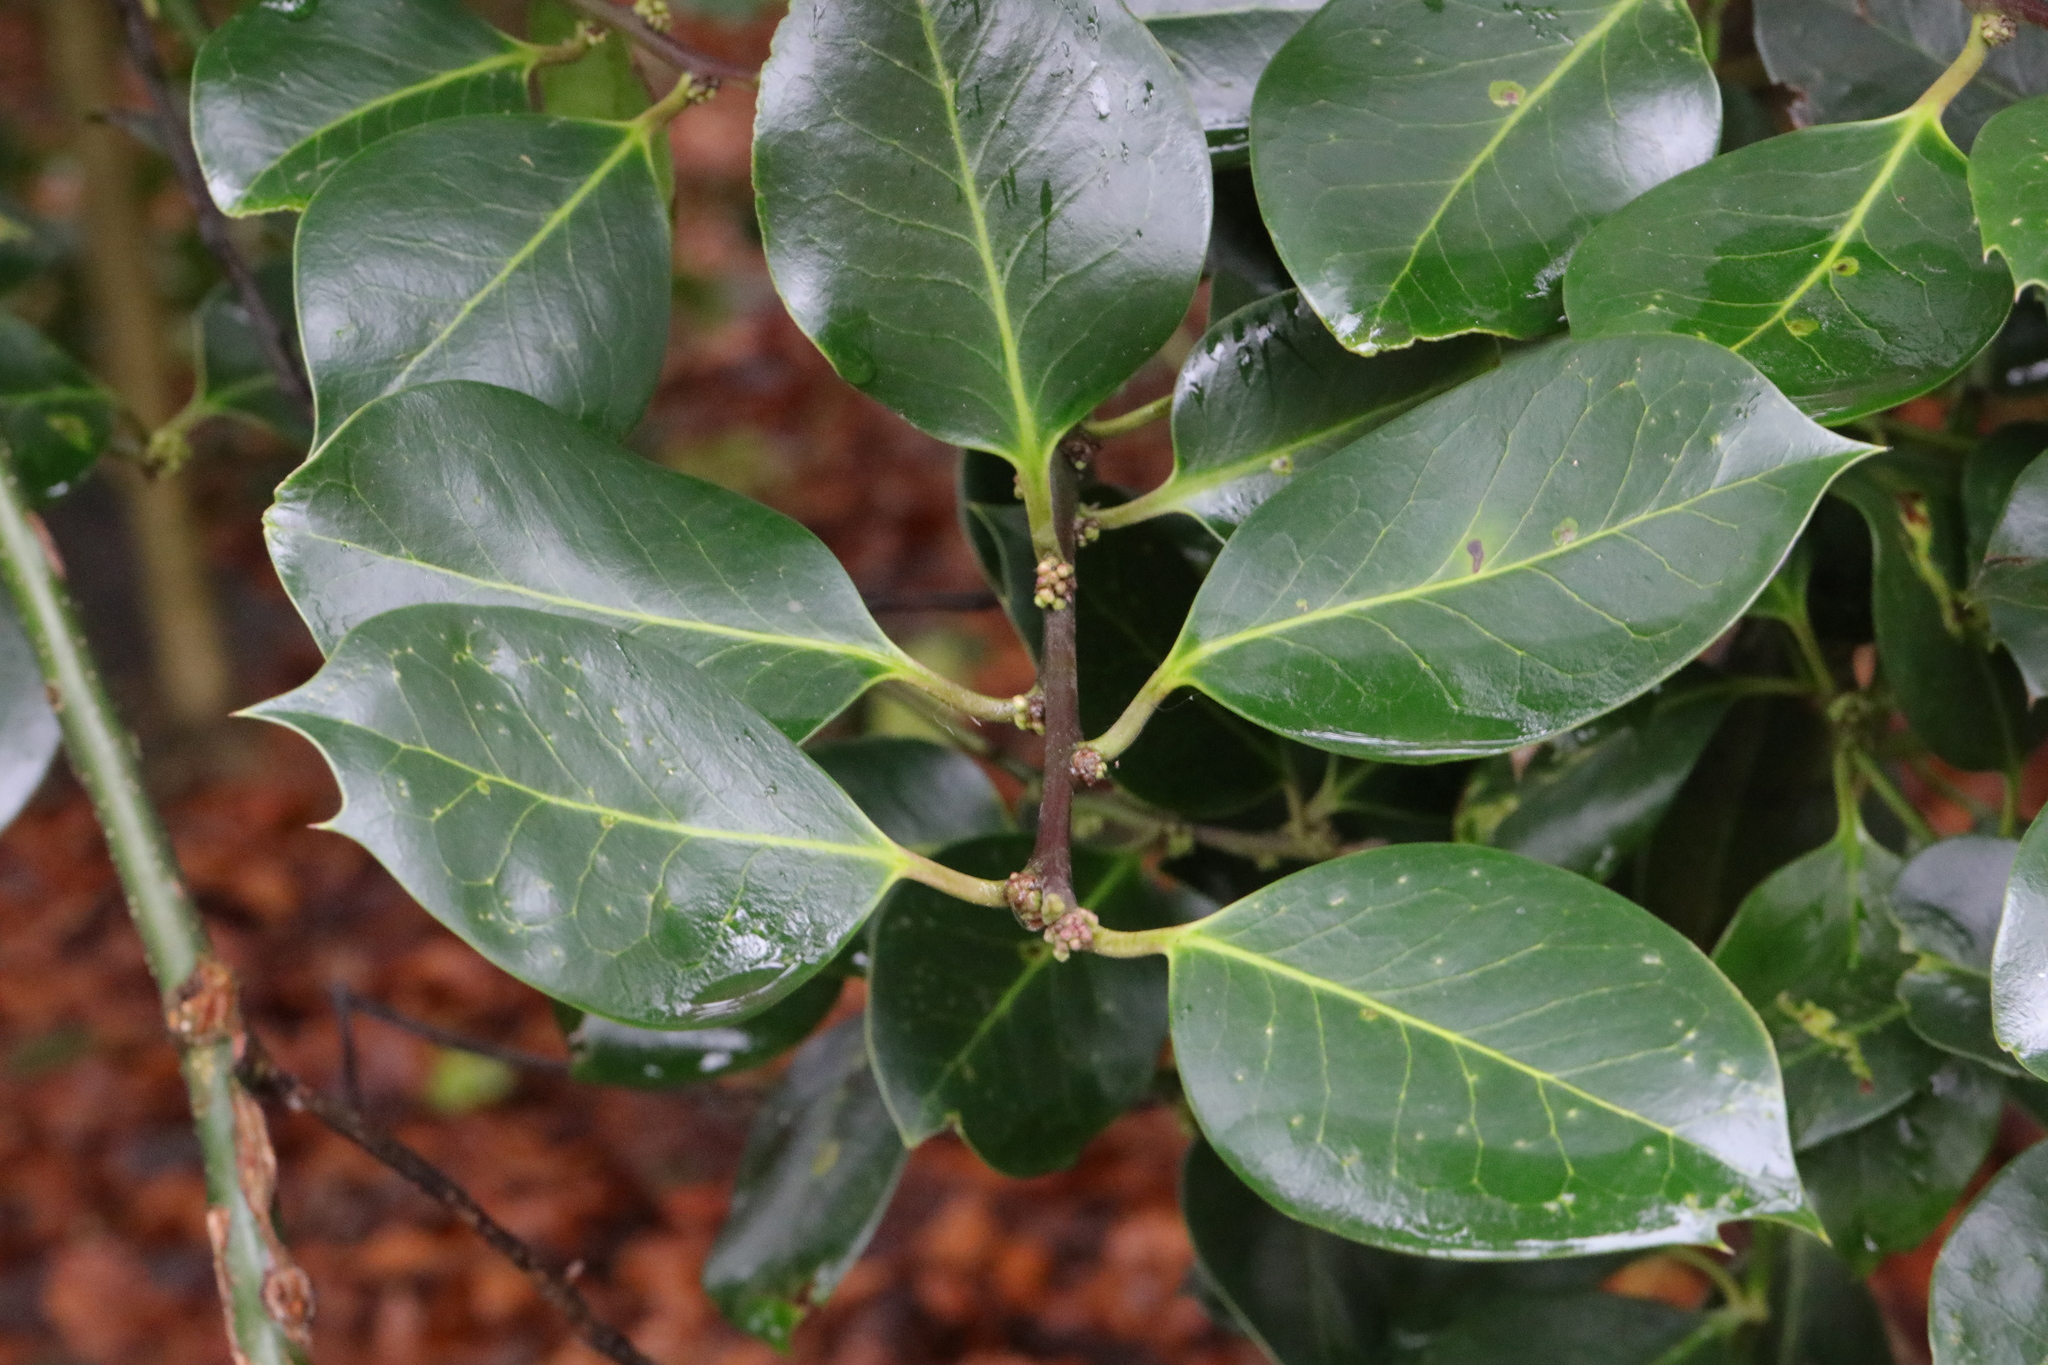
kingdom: Plantae
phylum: Tracheophyta
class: Magnoliopsida
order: Aquifoliales
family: Aquifoliaceae
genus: Ilex
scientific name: Ilex aquifolium
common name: English holly
